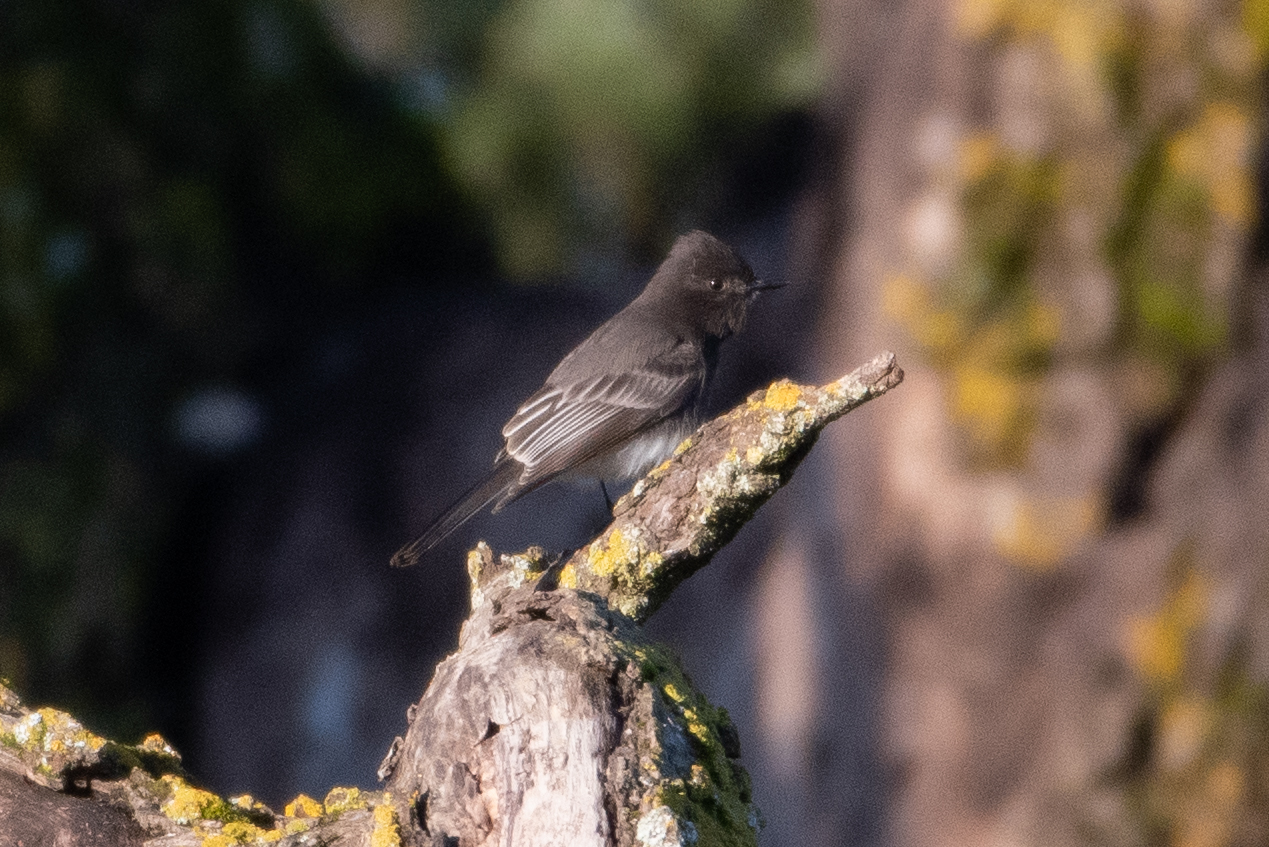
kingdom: Animalia
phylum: Chordata
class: Aves
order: Passeriformes
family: Tyrannidae
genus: Sayornis
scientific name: Sayornis nigricans
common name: Black phoebe
